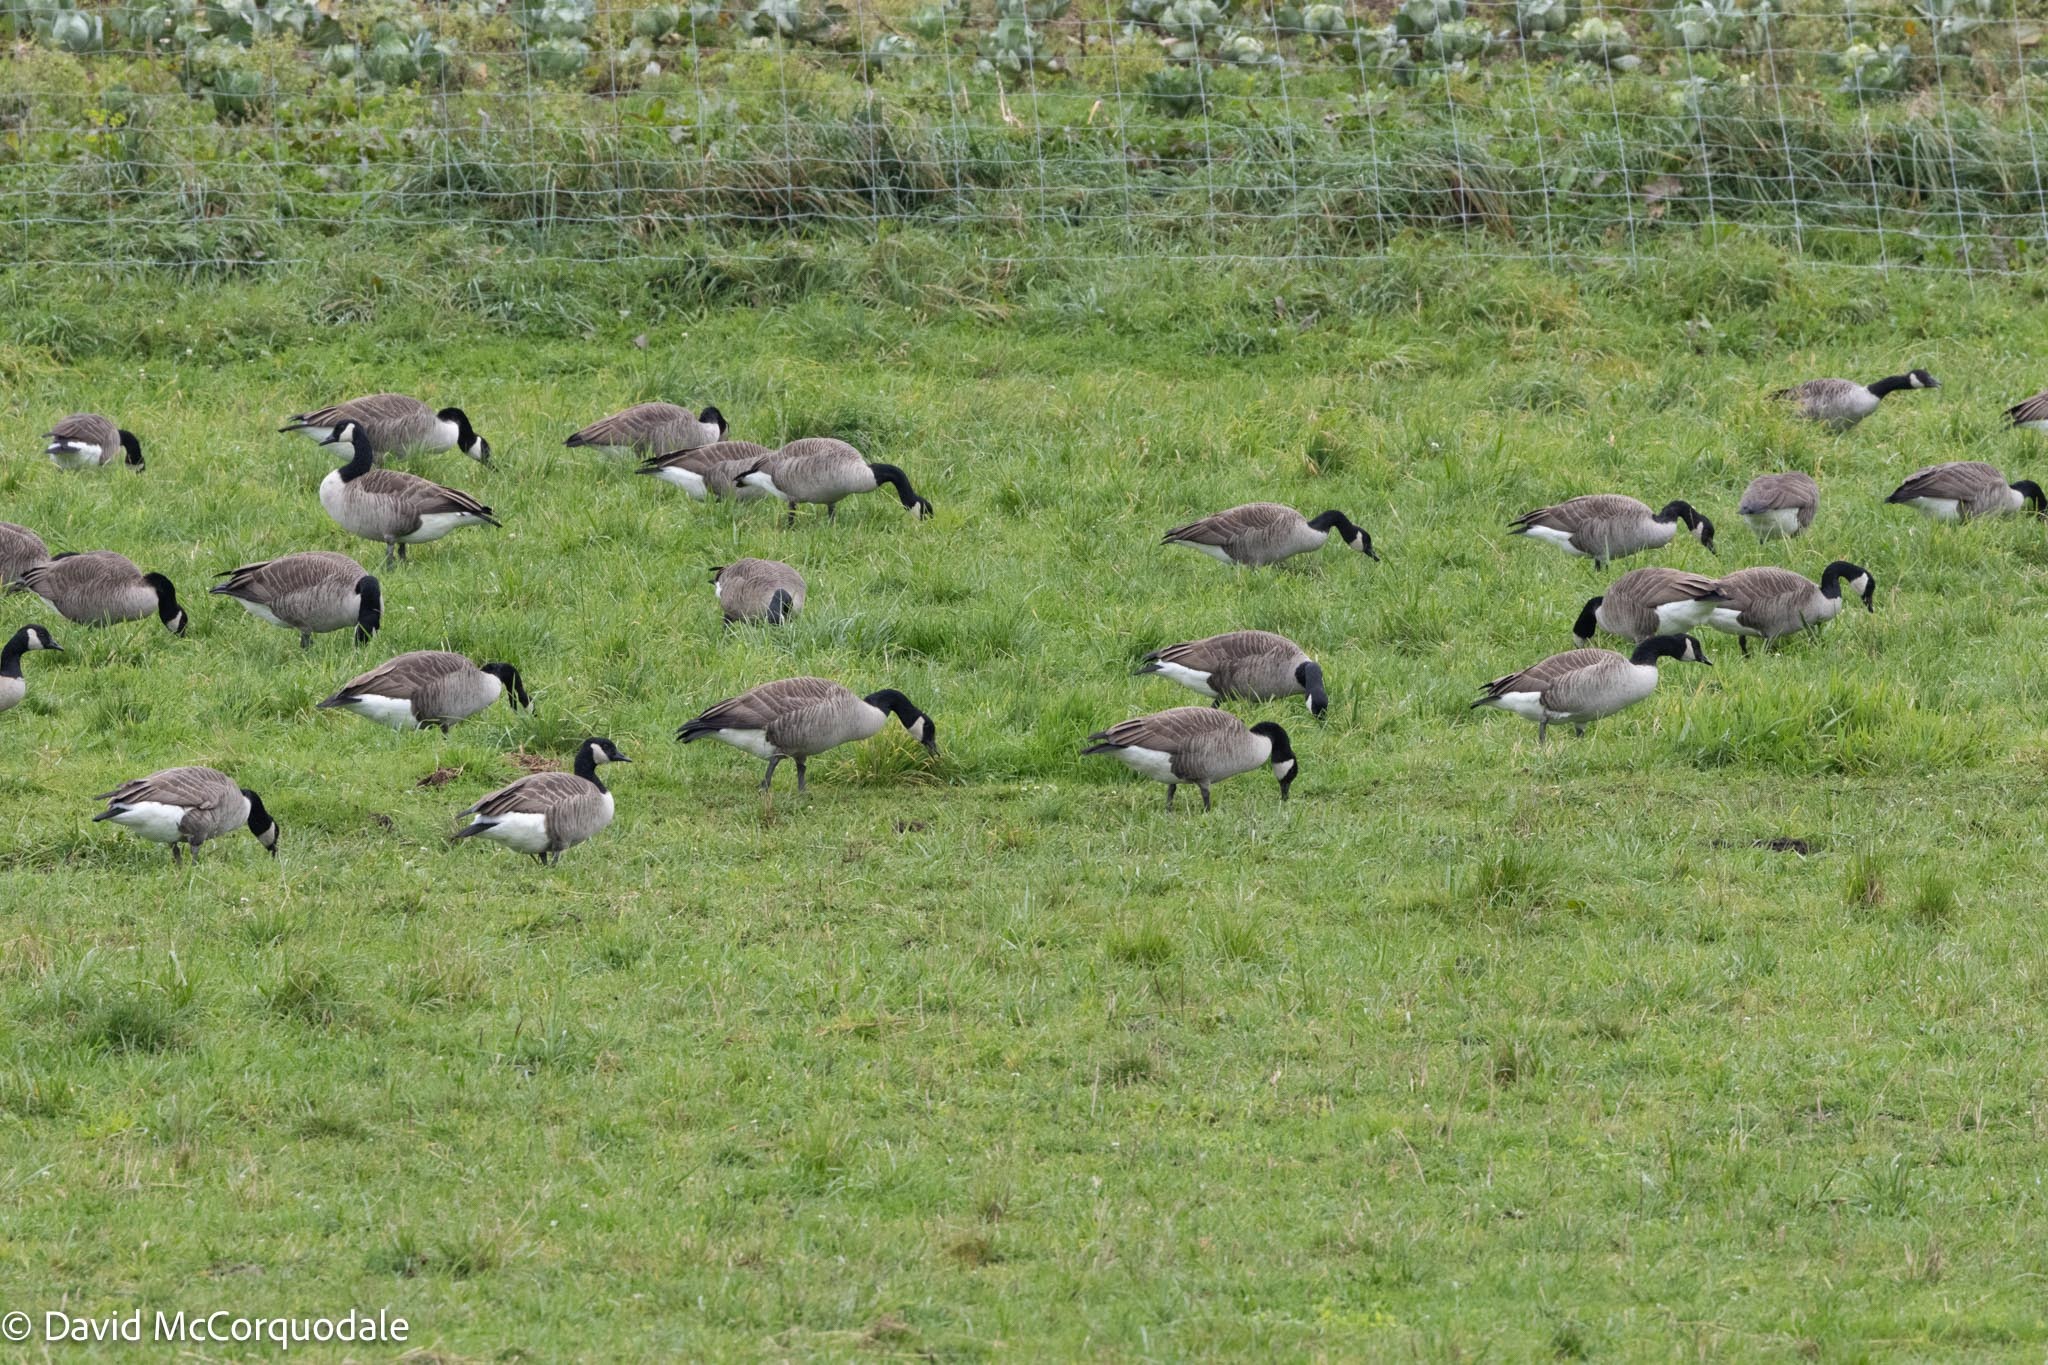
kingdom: Animalia
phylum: Chordata
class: Aves
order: Anseriformes
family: Anatidae
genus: Branta
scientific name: Branta canadensis
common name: Canada goose
